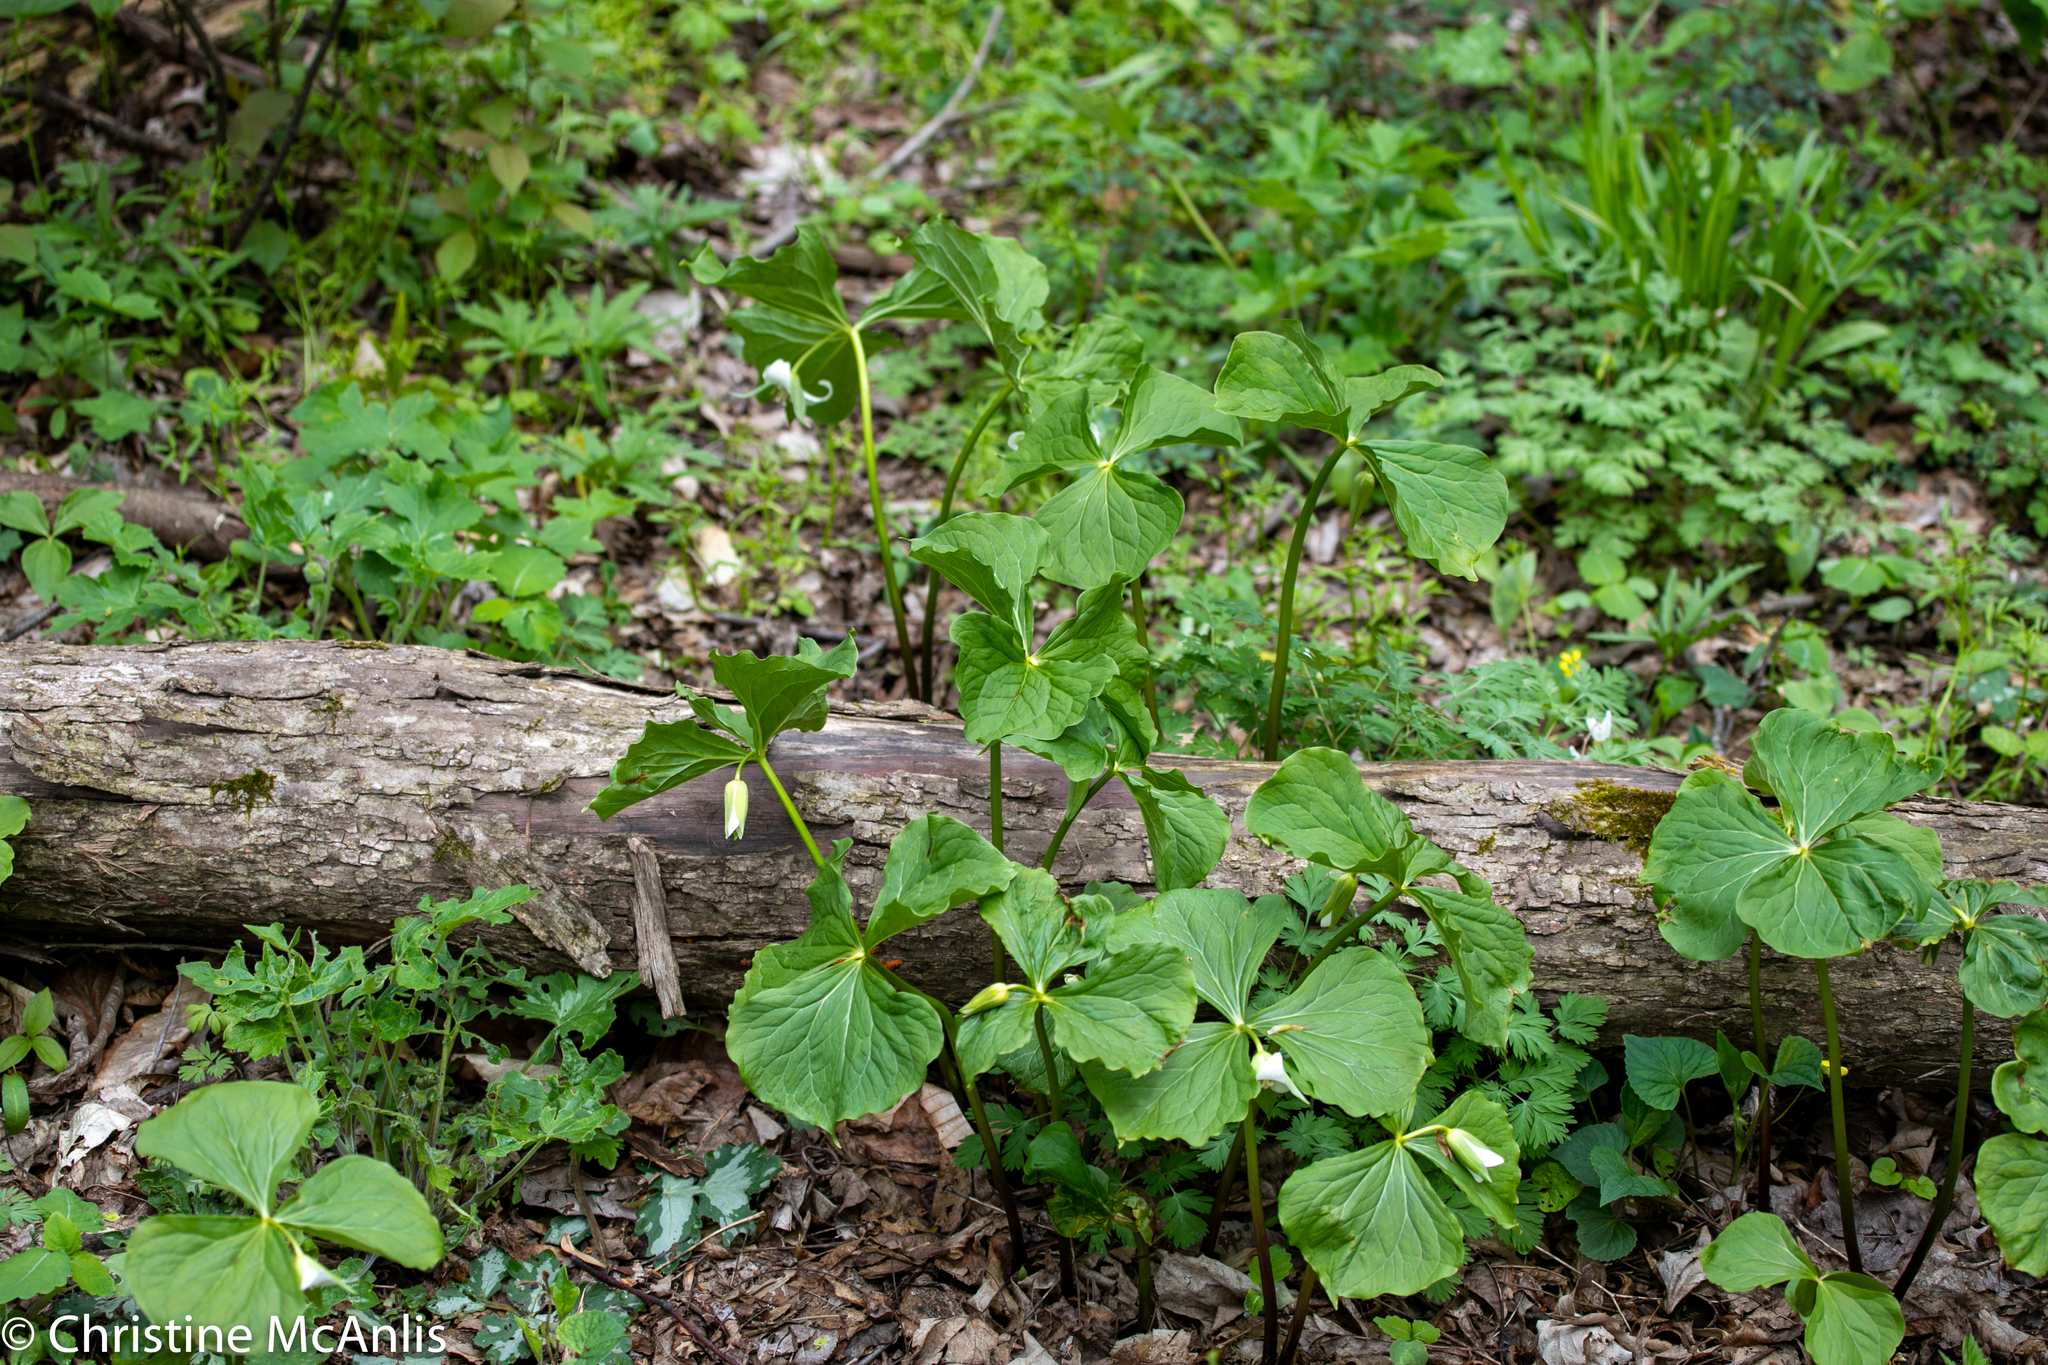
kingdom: Plantae
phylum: Tracheophyta
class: Liliopsida
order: Liliales
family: Melanthiaceae
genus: Trillium
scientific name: Trillium flexipes
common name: Drooping trillium
